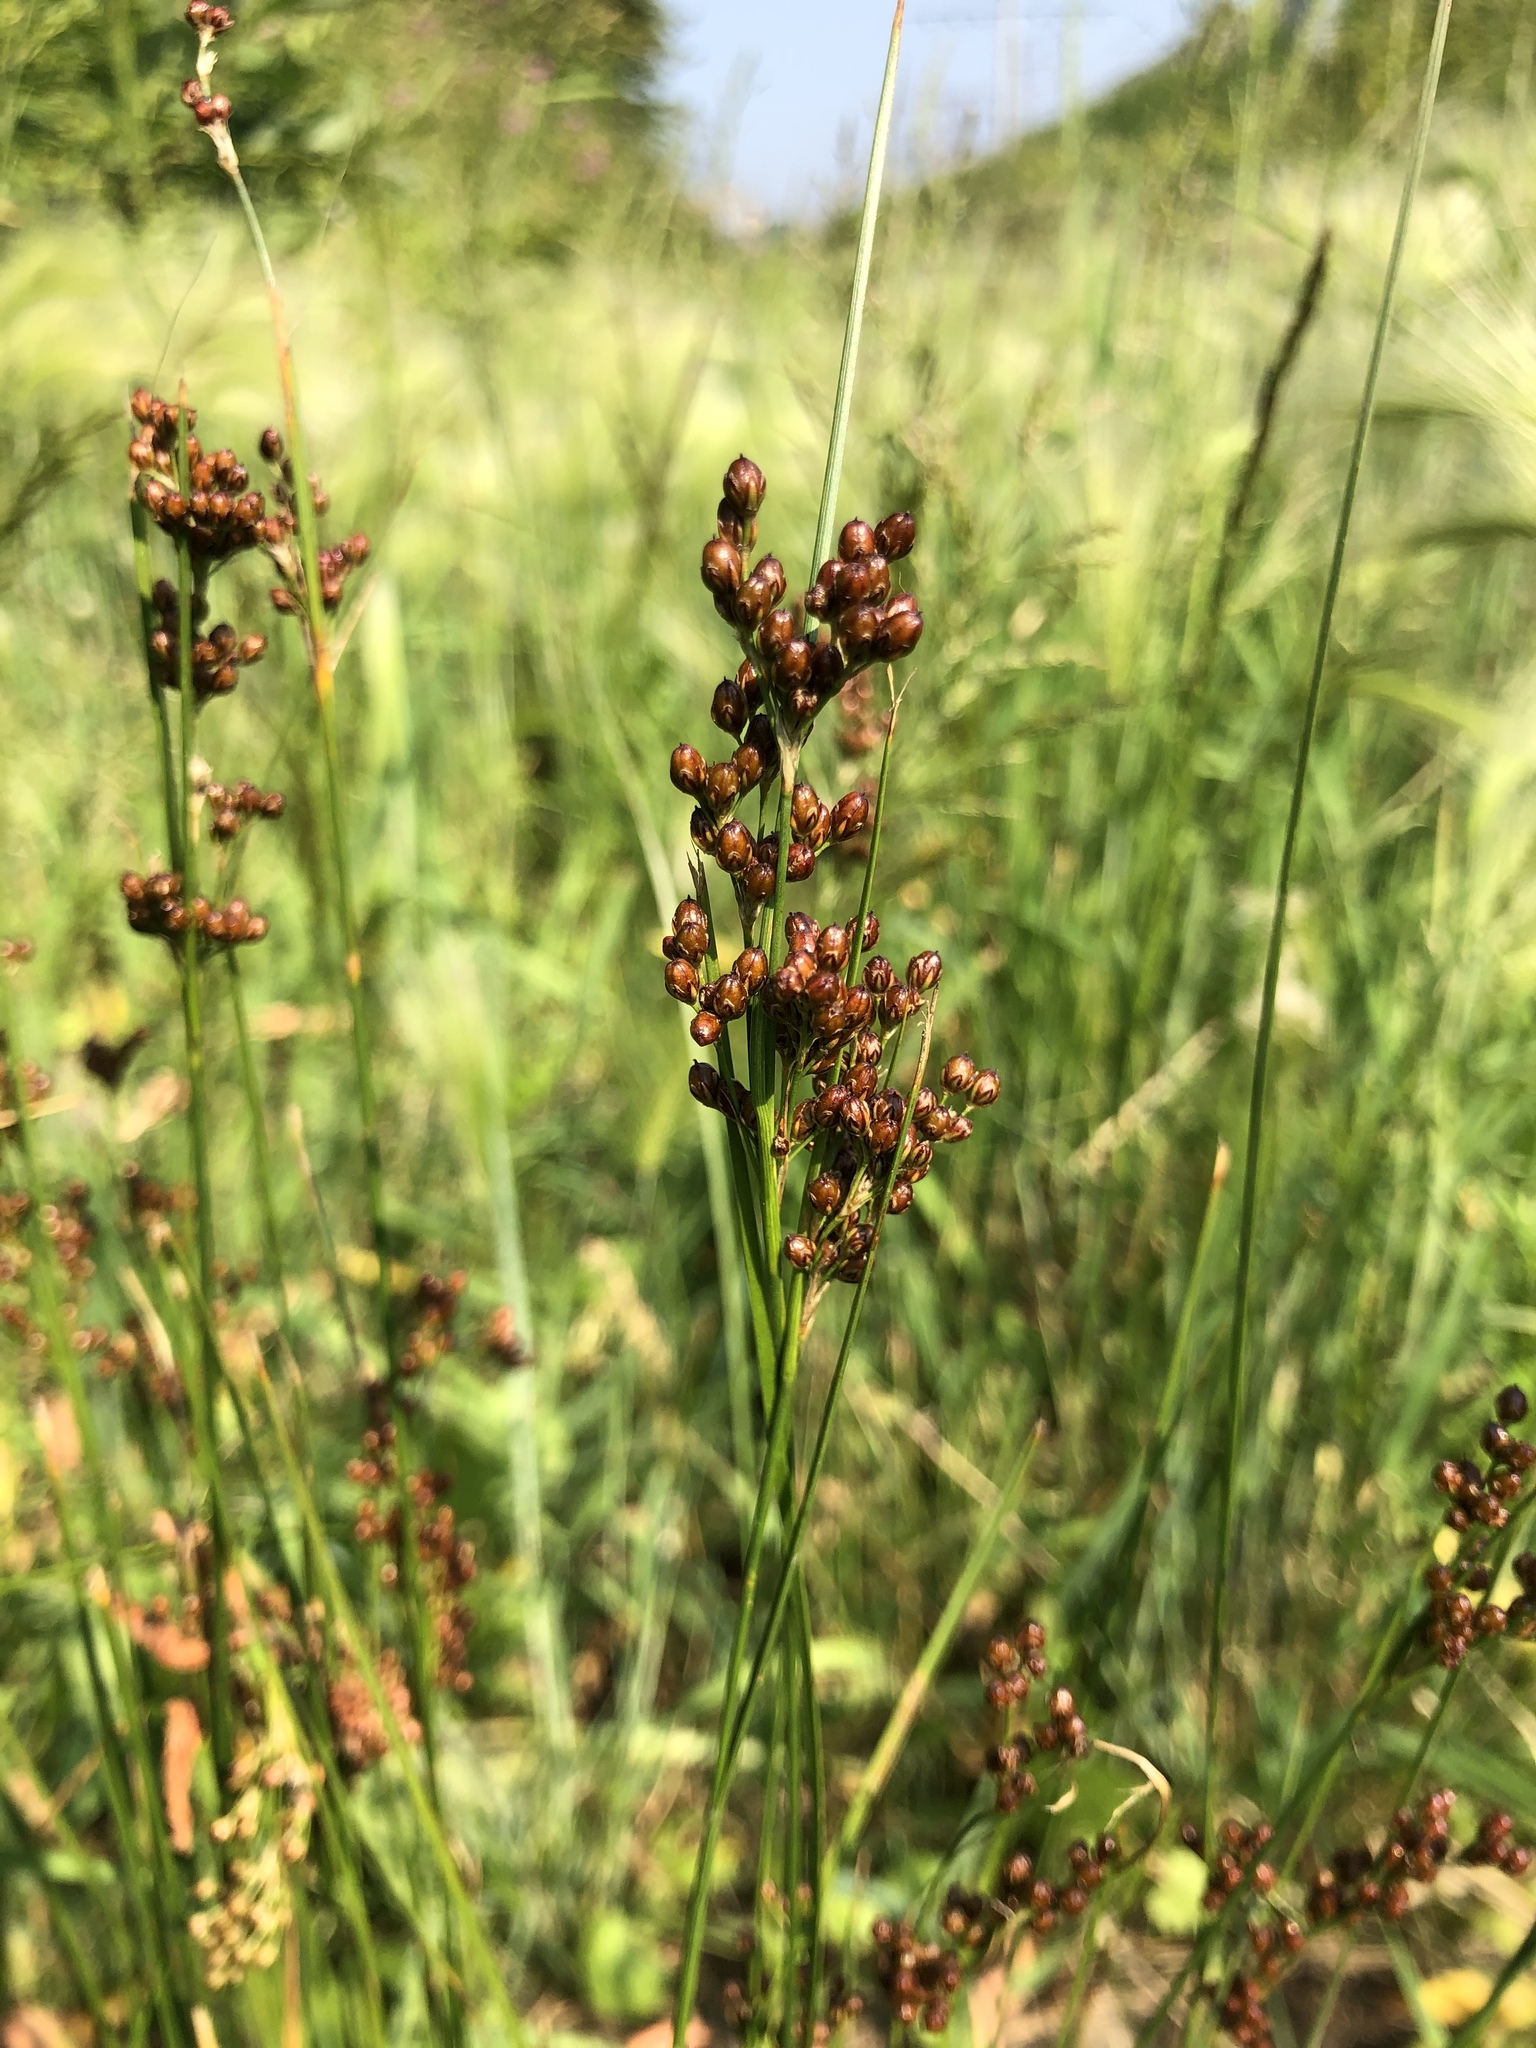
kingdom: Plantae
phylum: Tracheophyta
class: Liliopsida
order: Poales
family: Juncaceae
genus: Juncus
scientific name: Juncus compressus
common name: Round-fruited rush
